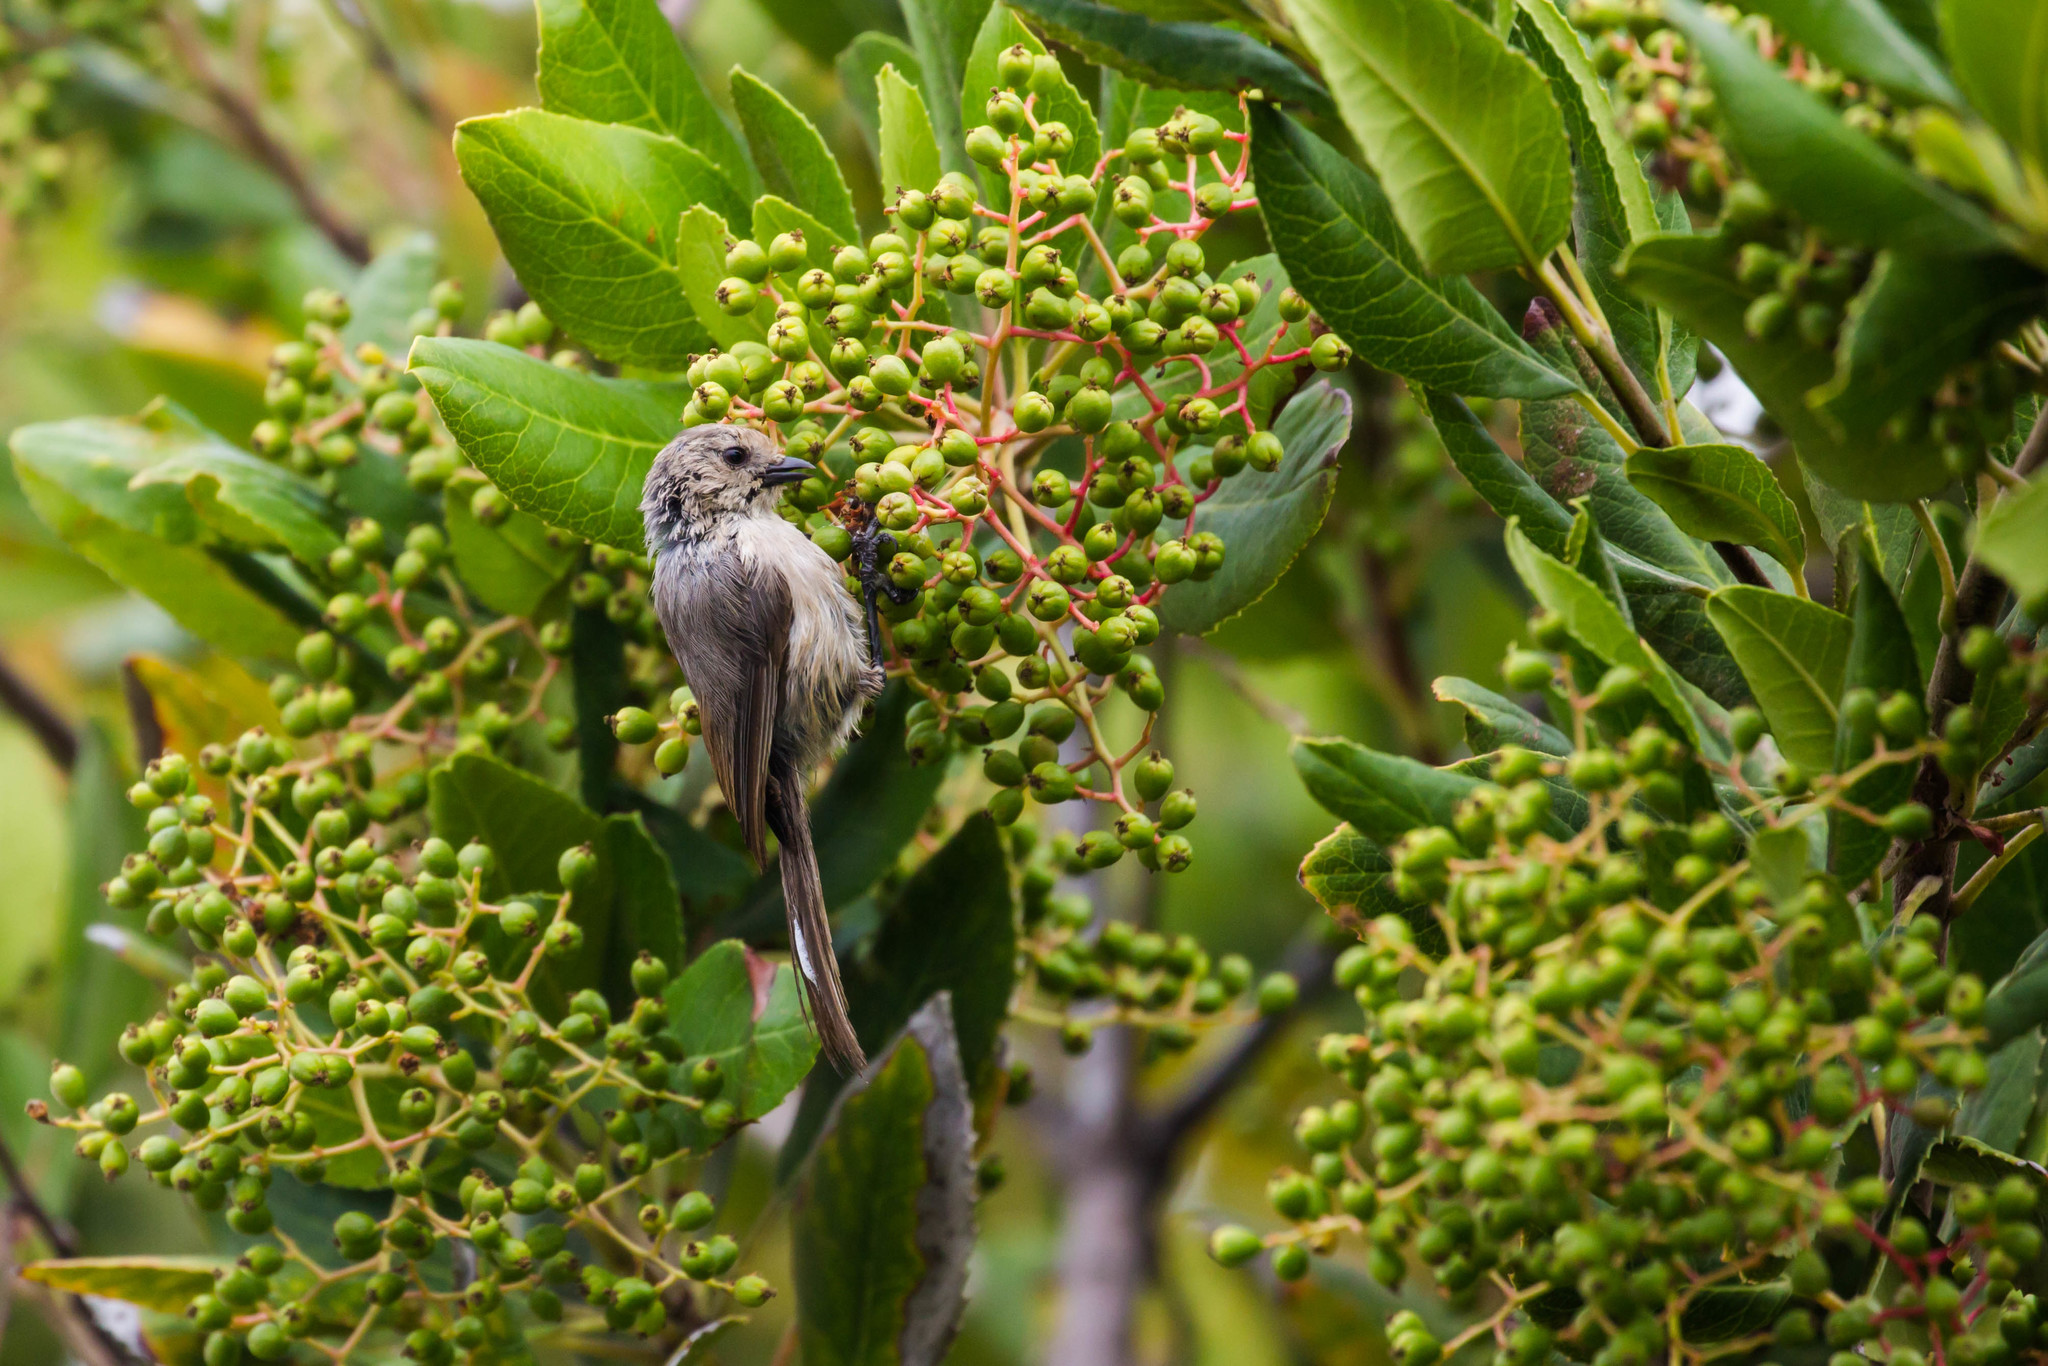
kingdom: Animalia
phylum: Chordata
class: Aves
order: Passeriformes
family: Aegithalidae
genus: Psaltriparus
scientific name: Psaltriparus minimus
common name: American bushtit
